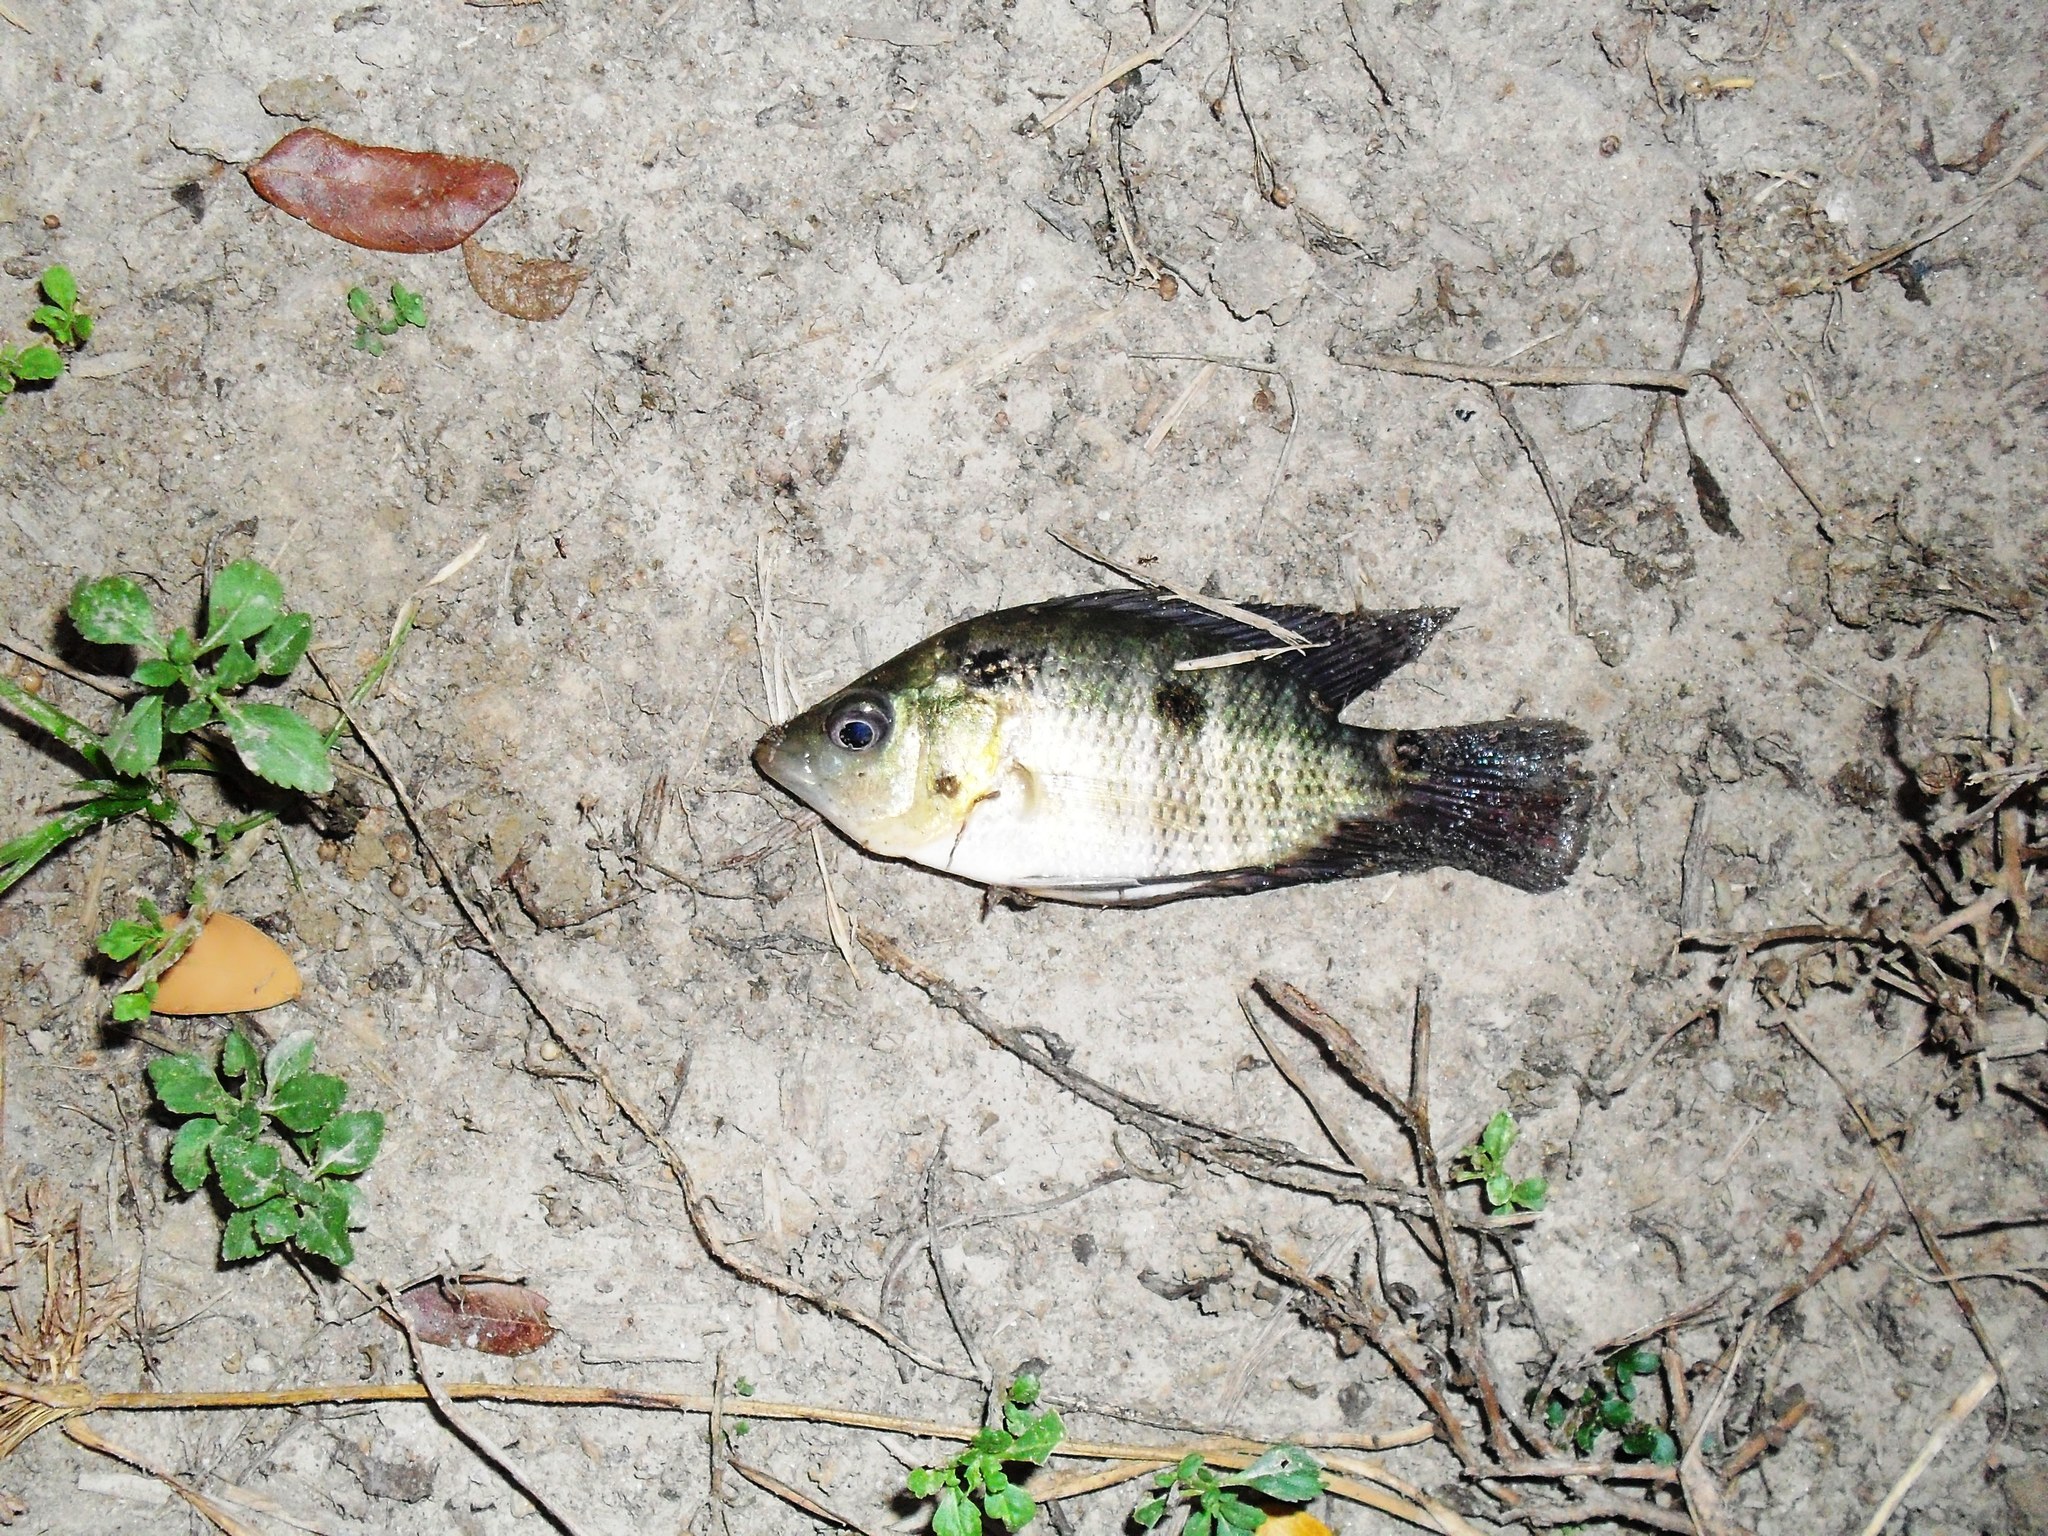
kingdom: Animalia
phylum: Chordata
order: Perciformes
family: Cichlidae
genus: Caquetaia
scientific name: Caquetaia kraussii
